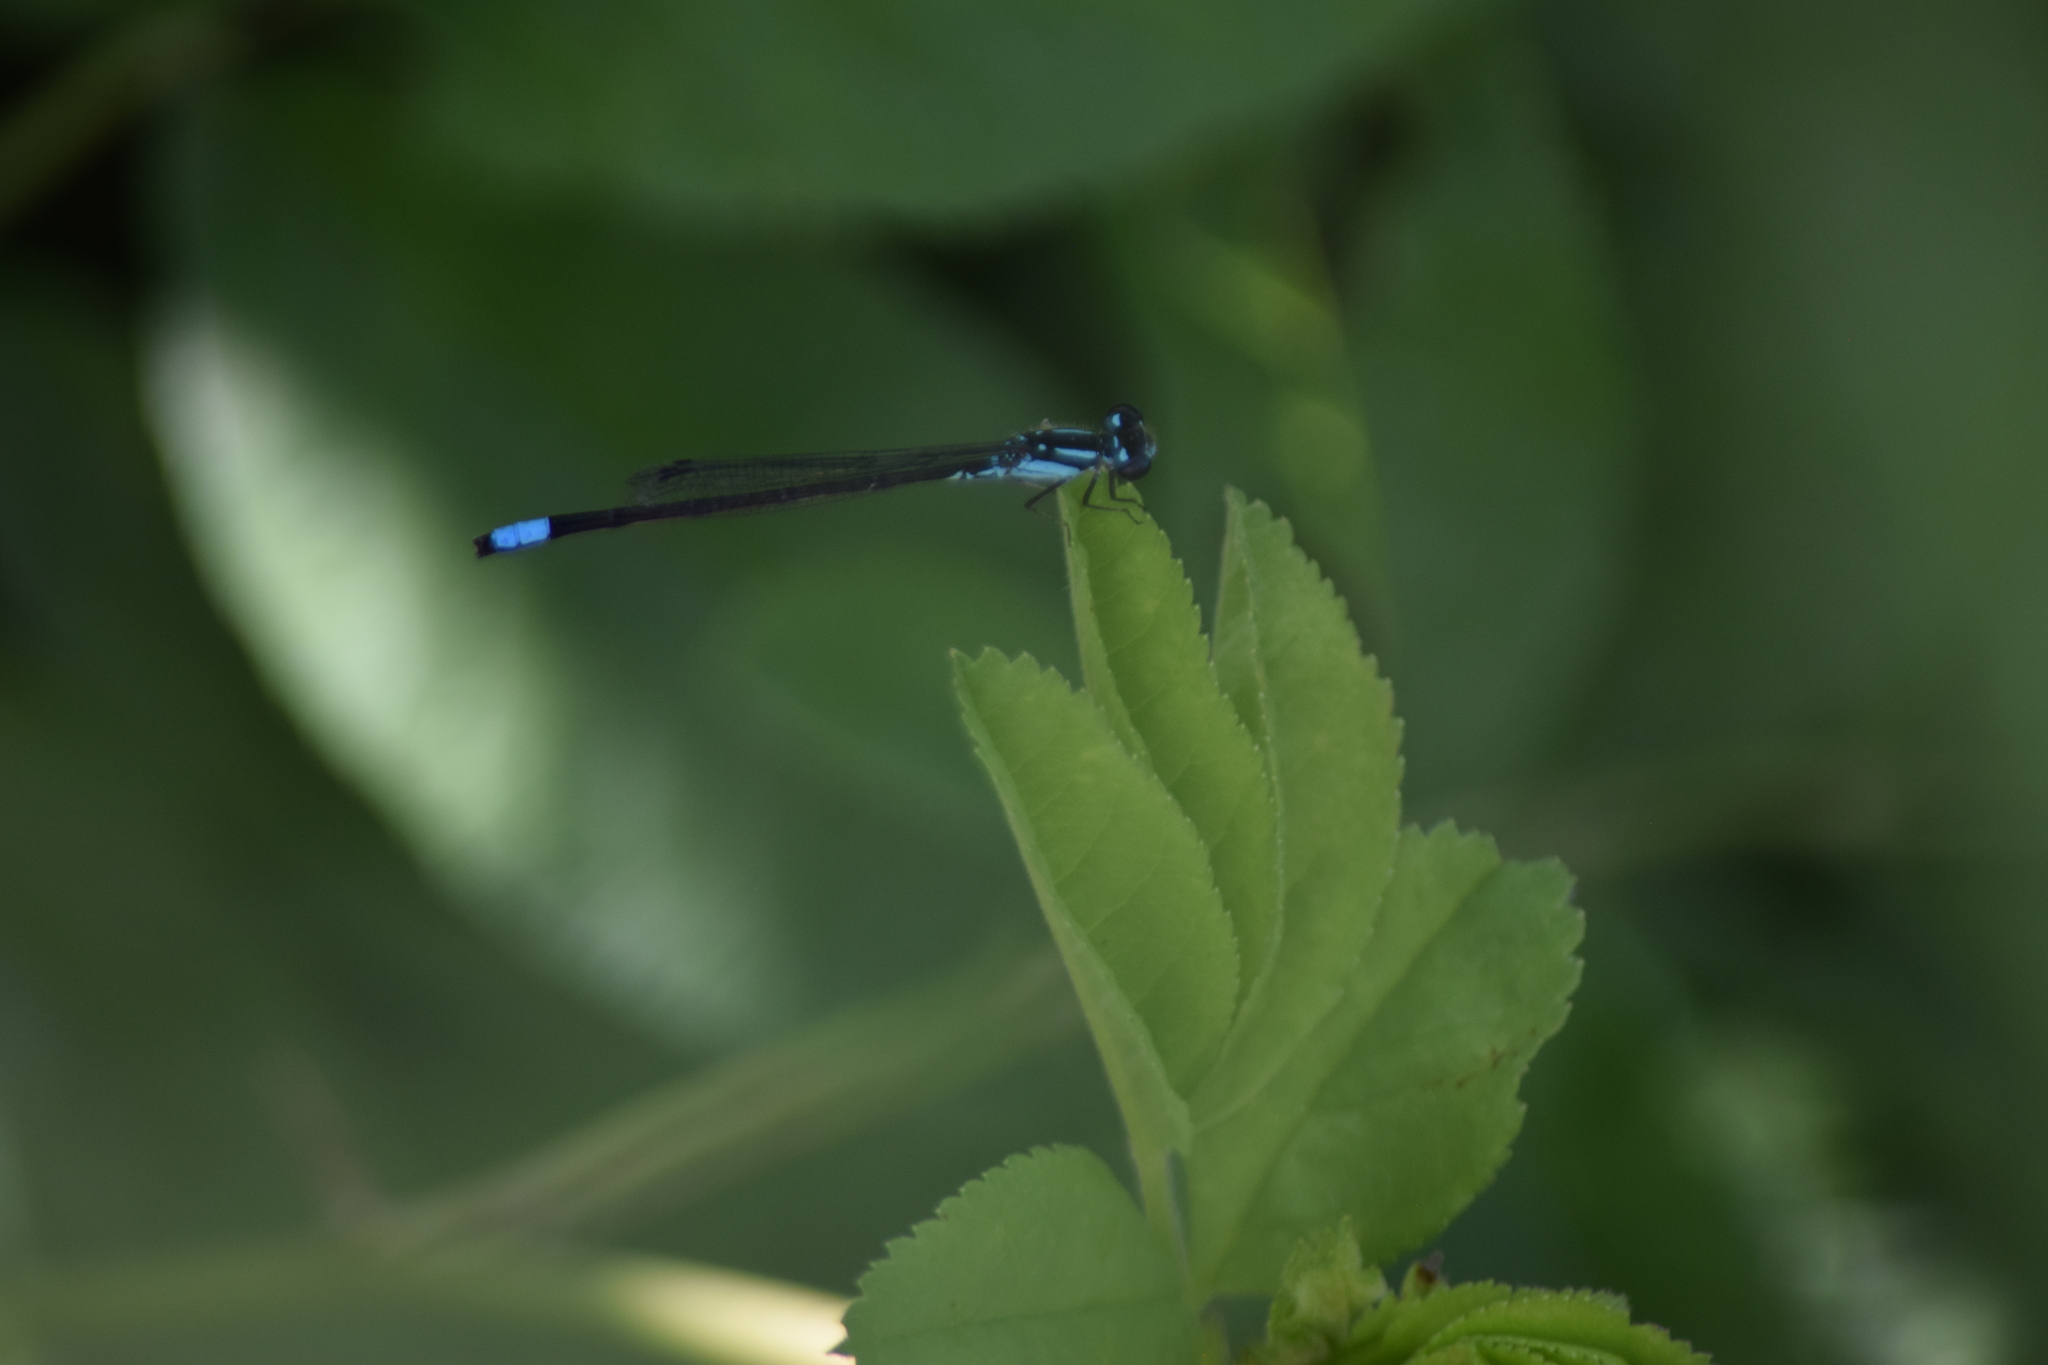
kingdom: Animalia
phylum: Arthropoda
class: Insecta
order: Odonata
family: Coenagrionidae
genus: Enallagma
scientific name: Enallagma geminatum
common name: Skimming bluet
